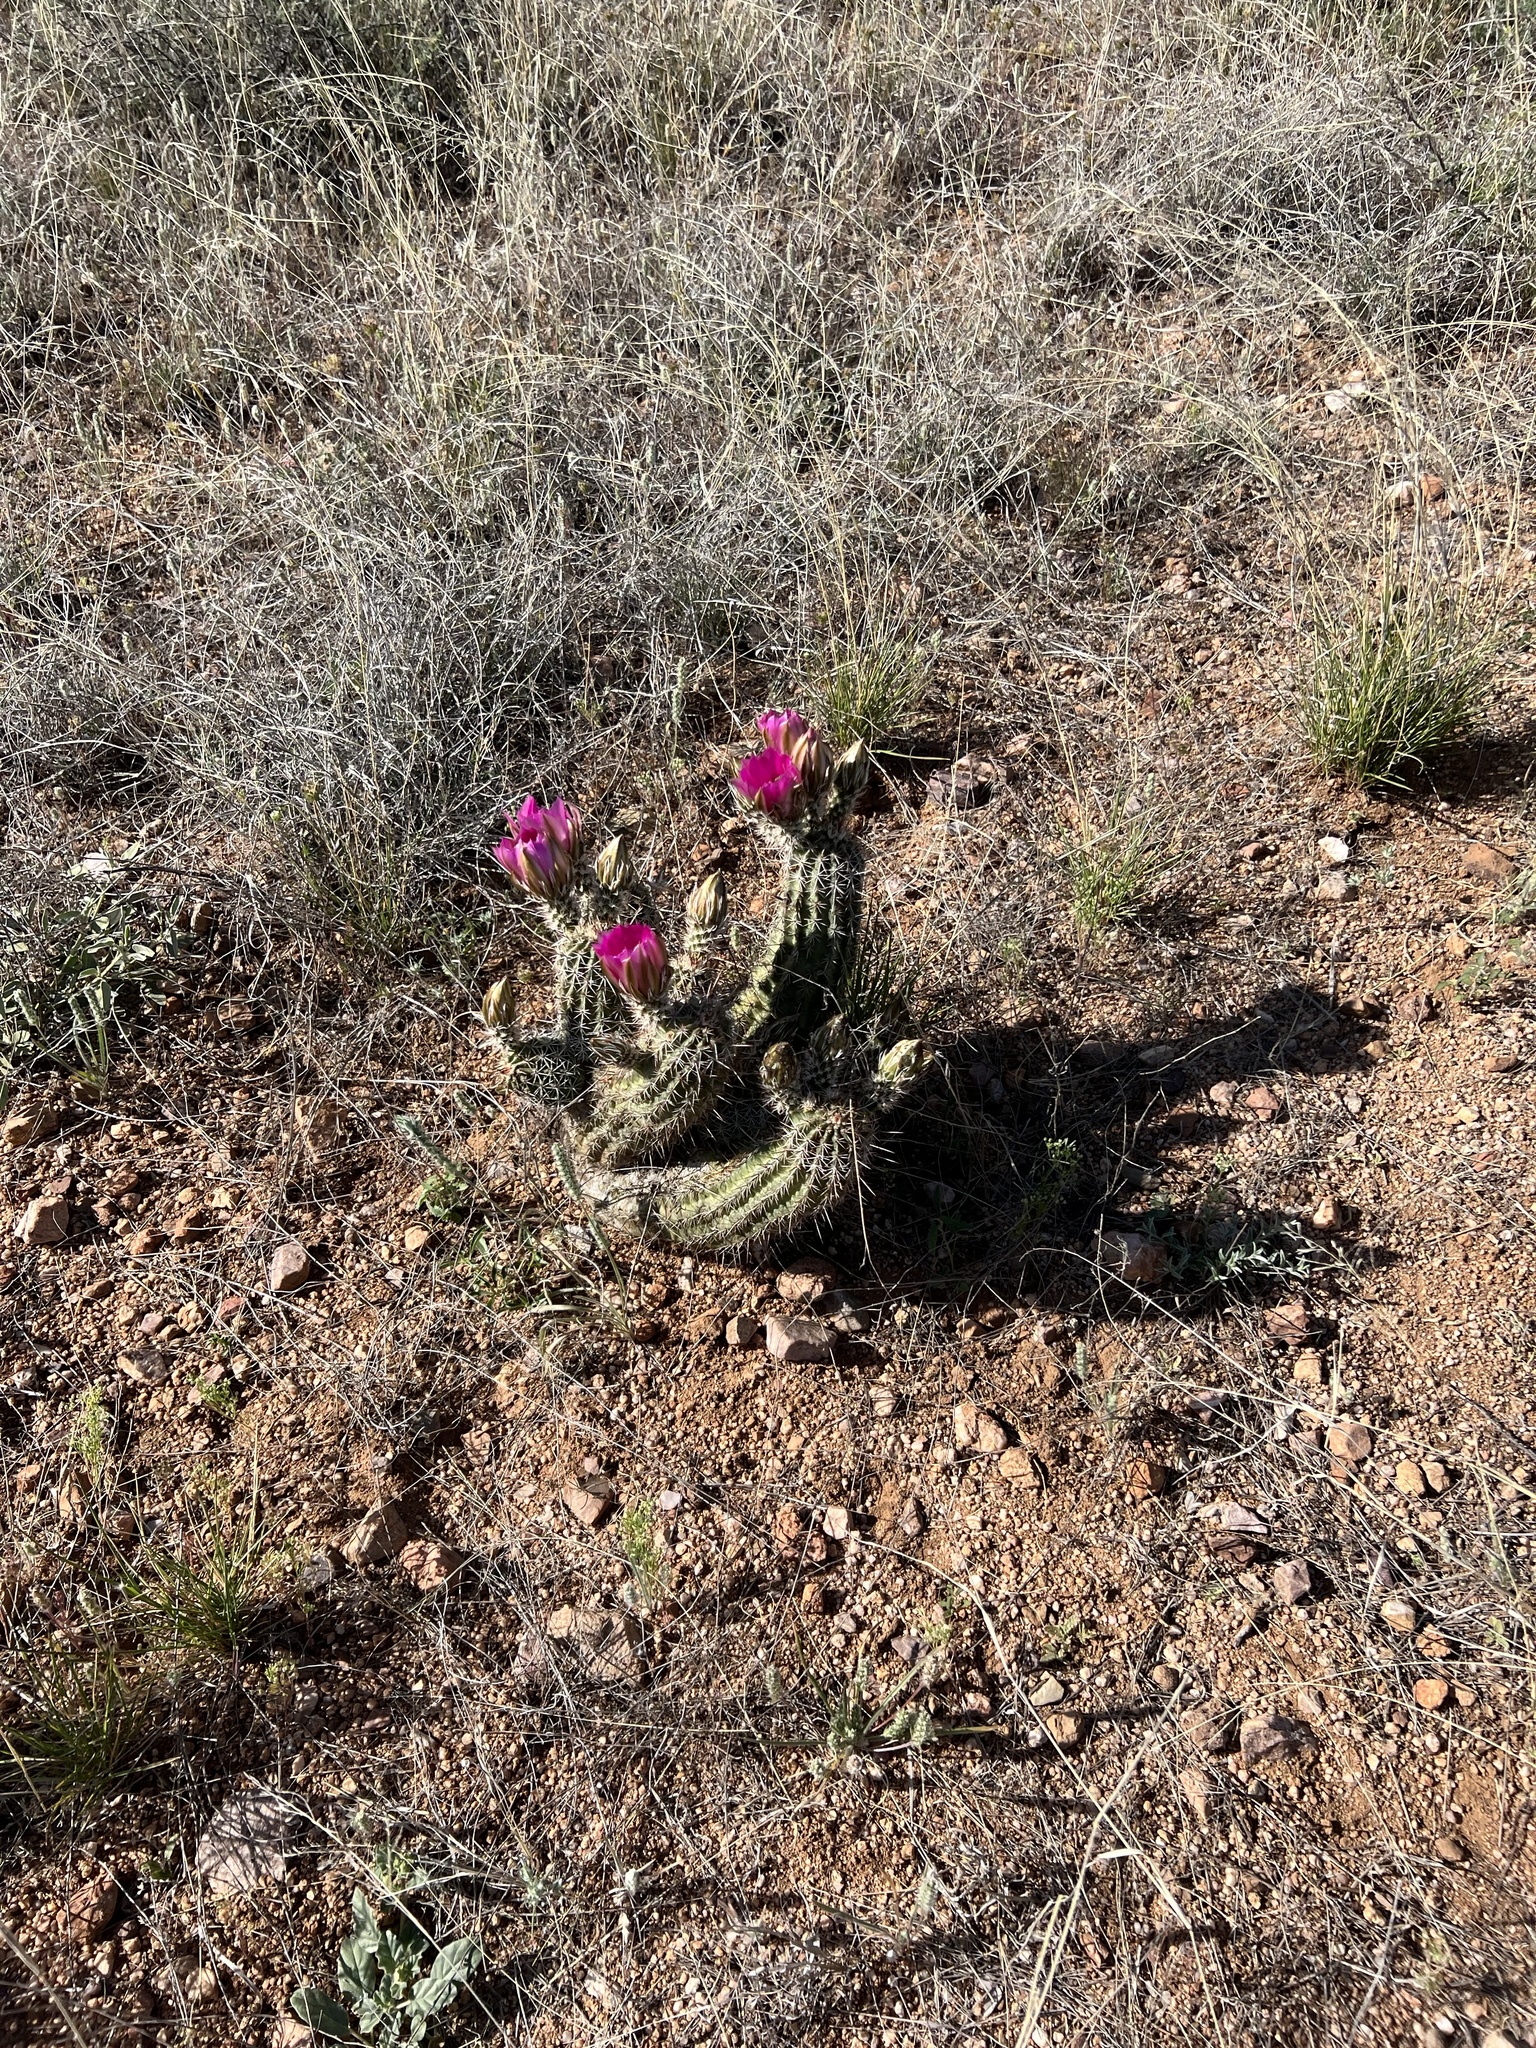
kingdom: Plantae
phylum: Tracheophyta
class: Magnoliopsida
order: Caryophyllales
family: Cactaceae
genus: Echinocereus
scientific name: Echinocereus fasciculatus
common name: Bundle hedgehog
